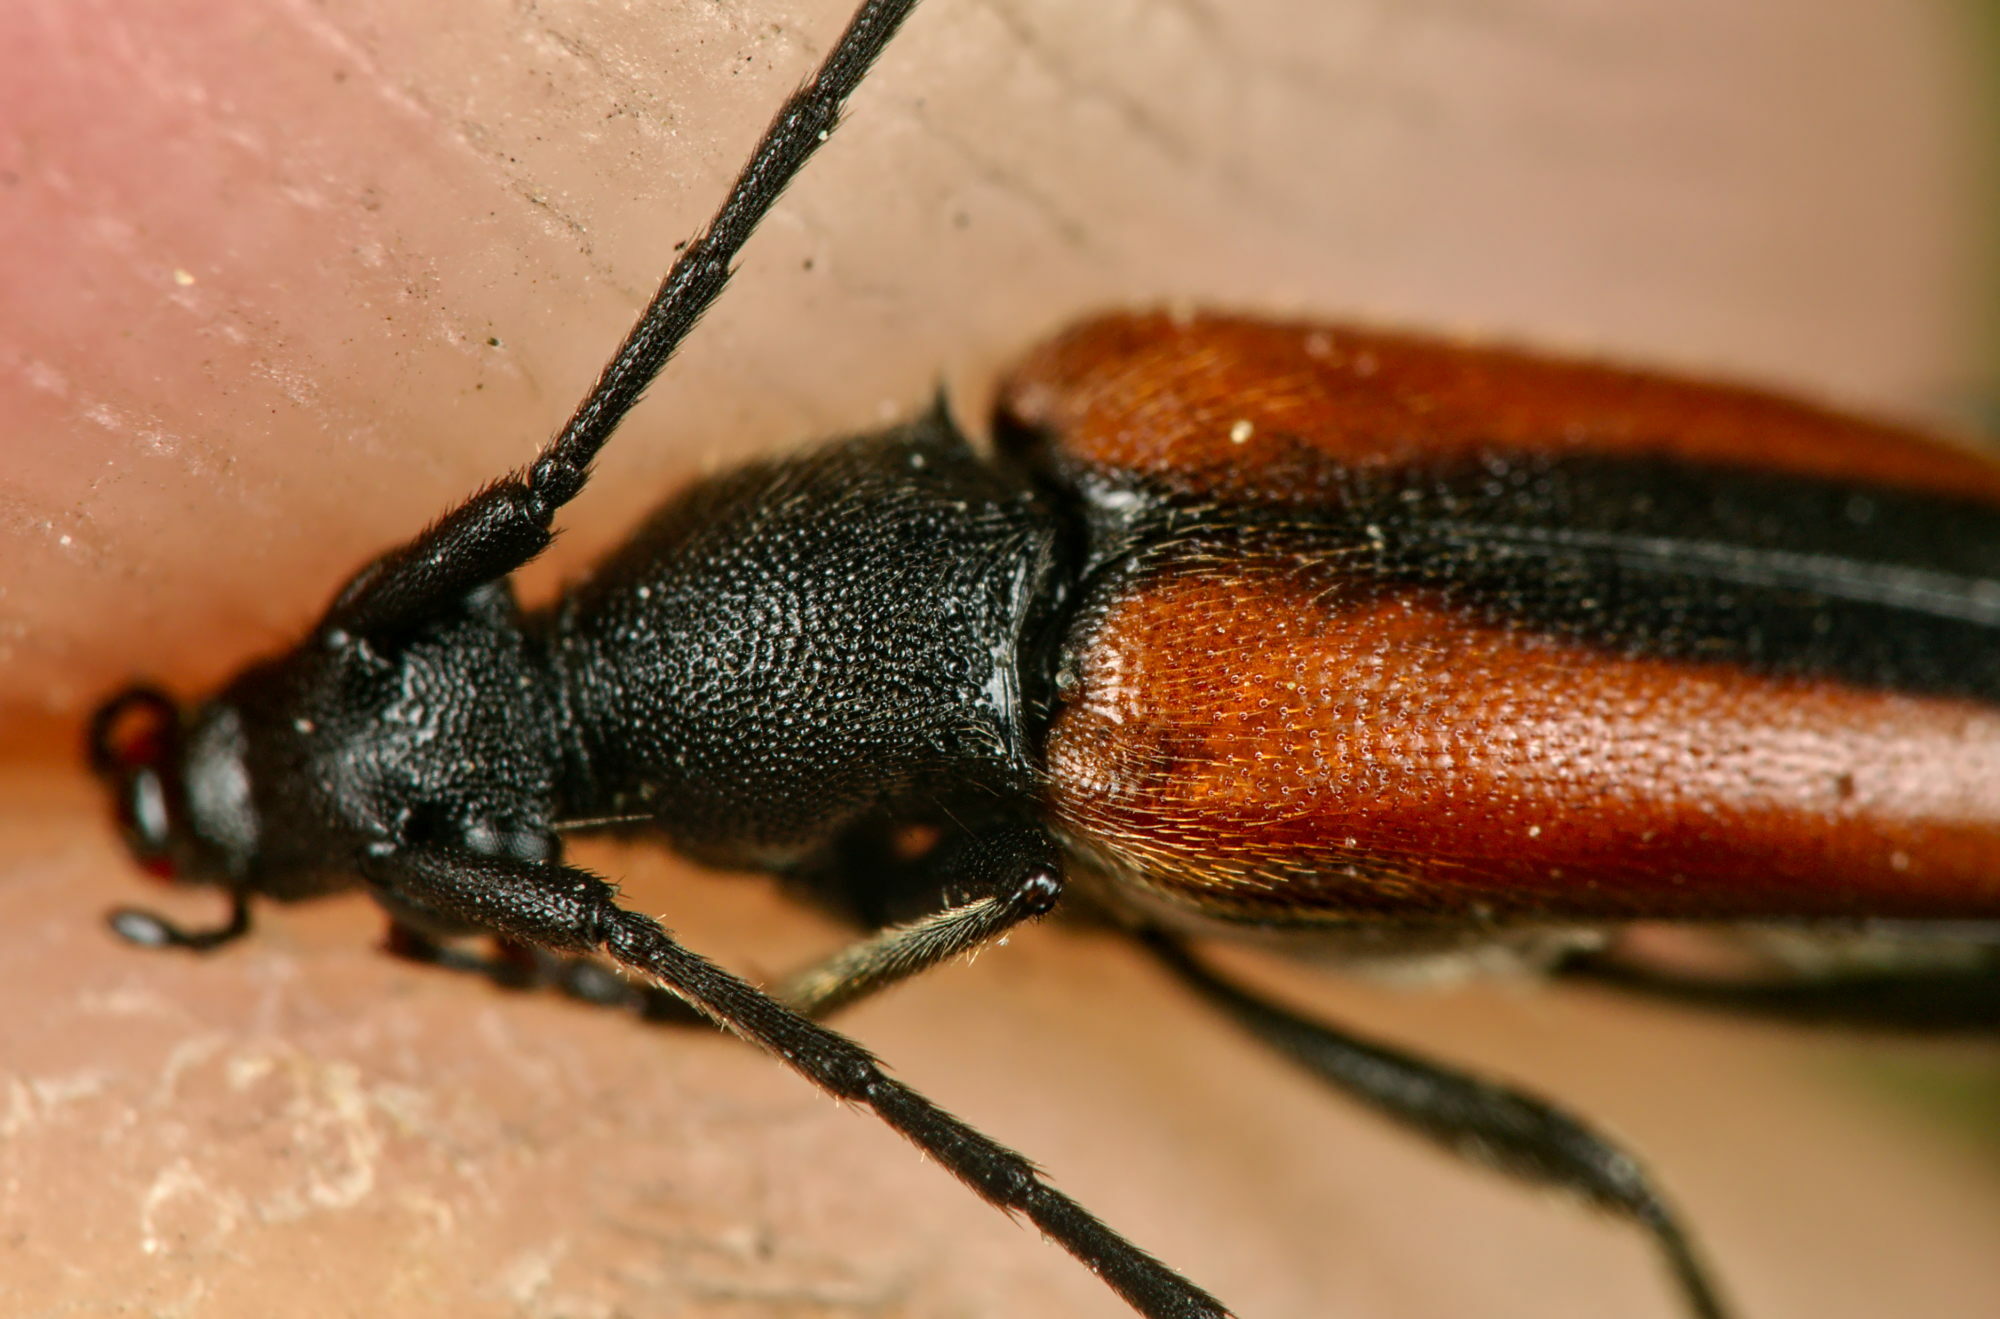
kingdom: Animalia
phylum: Arthropoda
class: Insecta
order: Coleoptera
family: Cerambycidae
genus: Stenurella
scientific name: Stenurella melanura
